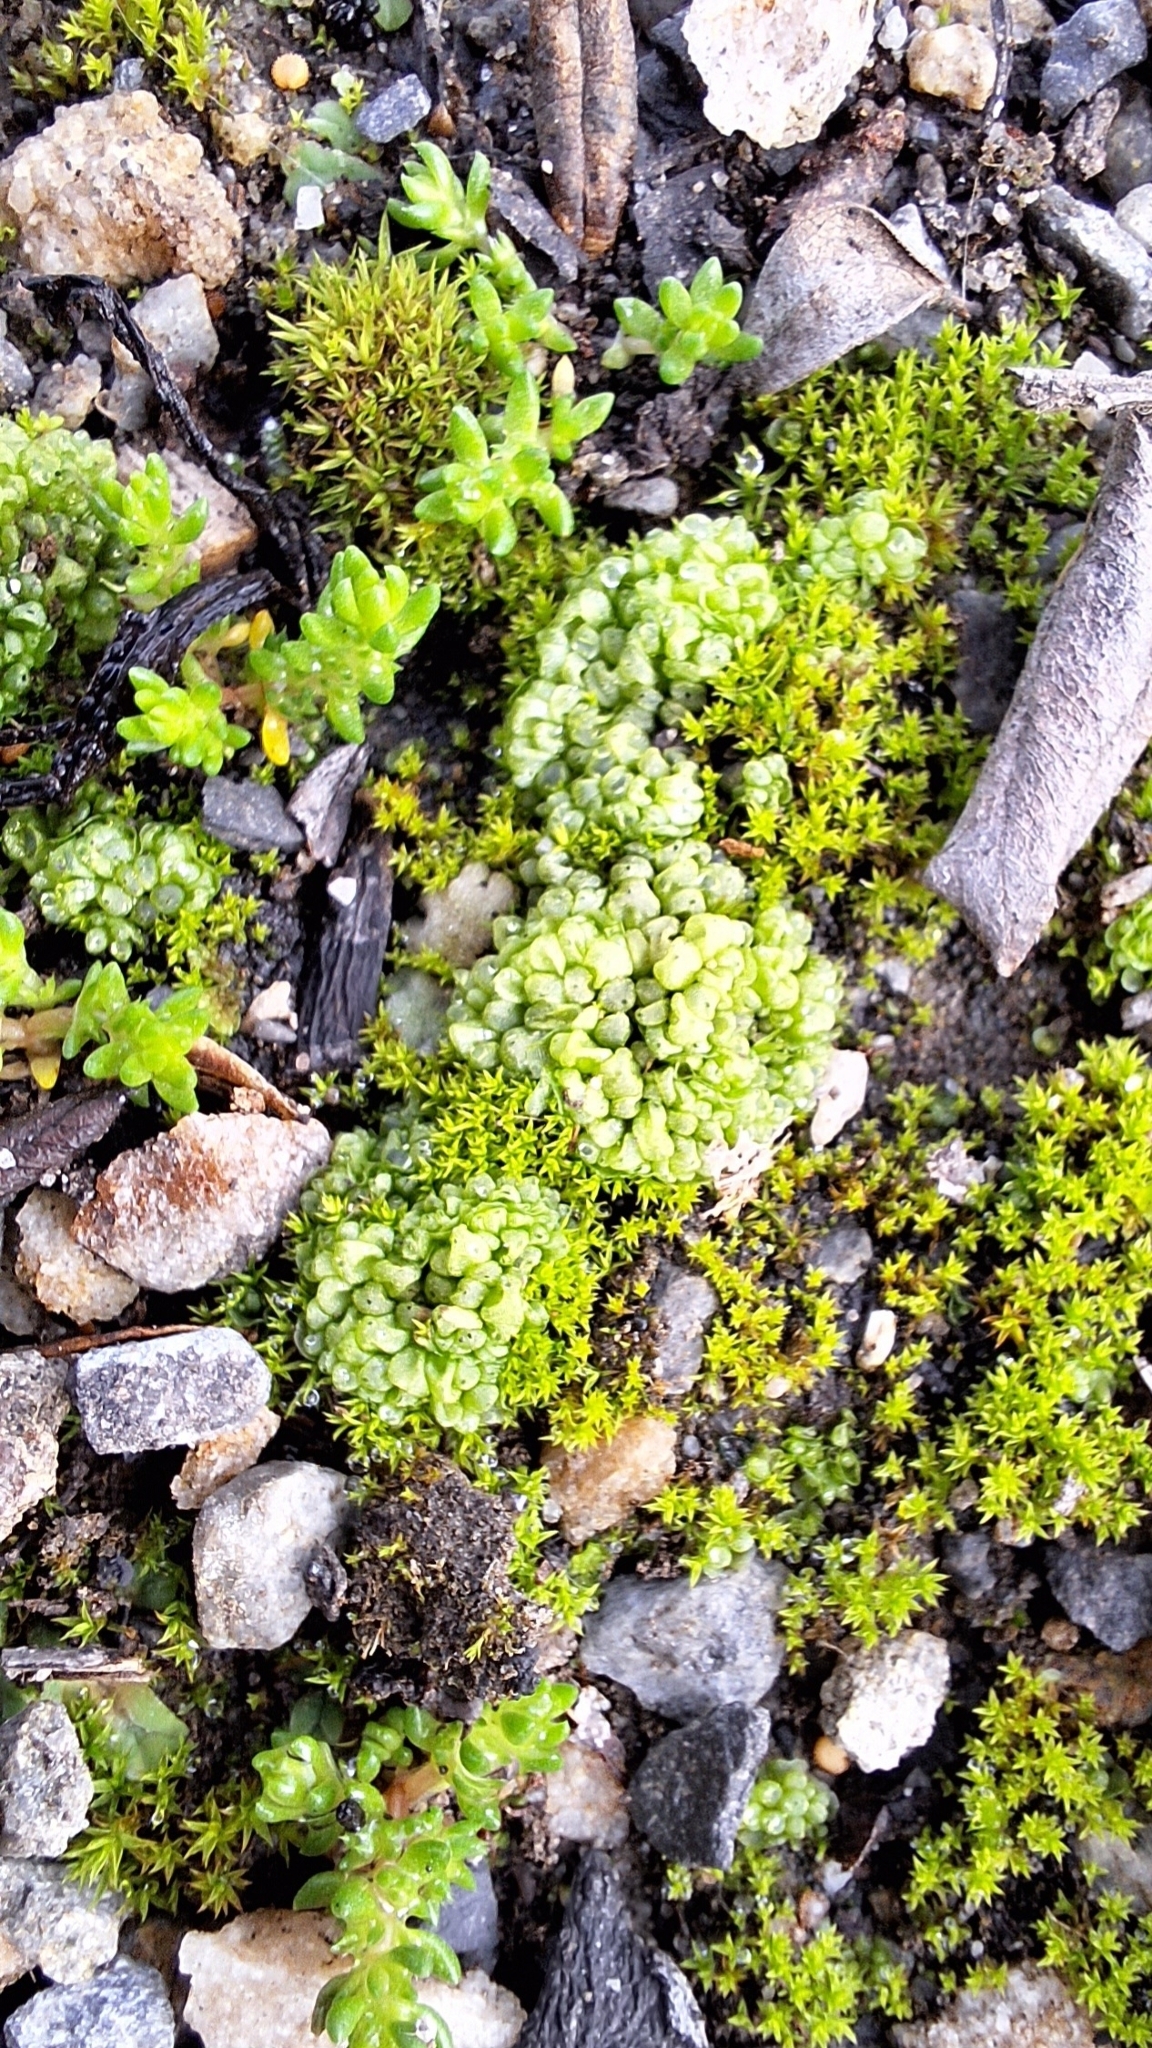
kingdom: Plantae
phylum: Marchantiophyta
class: Marchantiopsida
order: Sphaerocarpales
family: Sphaerocarpaceae
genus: Sphaerocarpos
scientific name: Sphaerocarpos texanus
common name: Texas balloonwort
